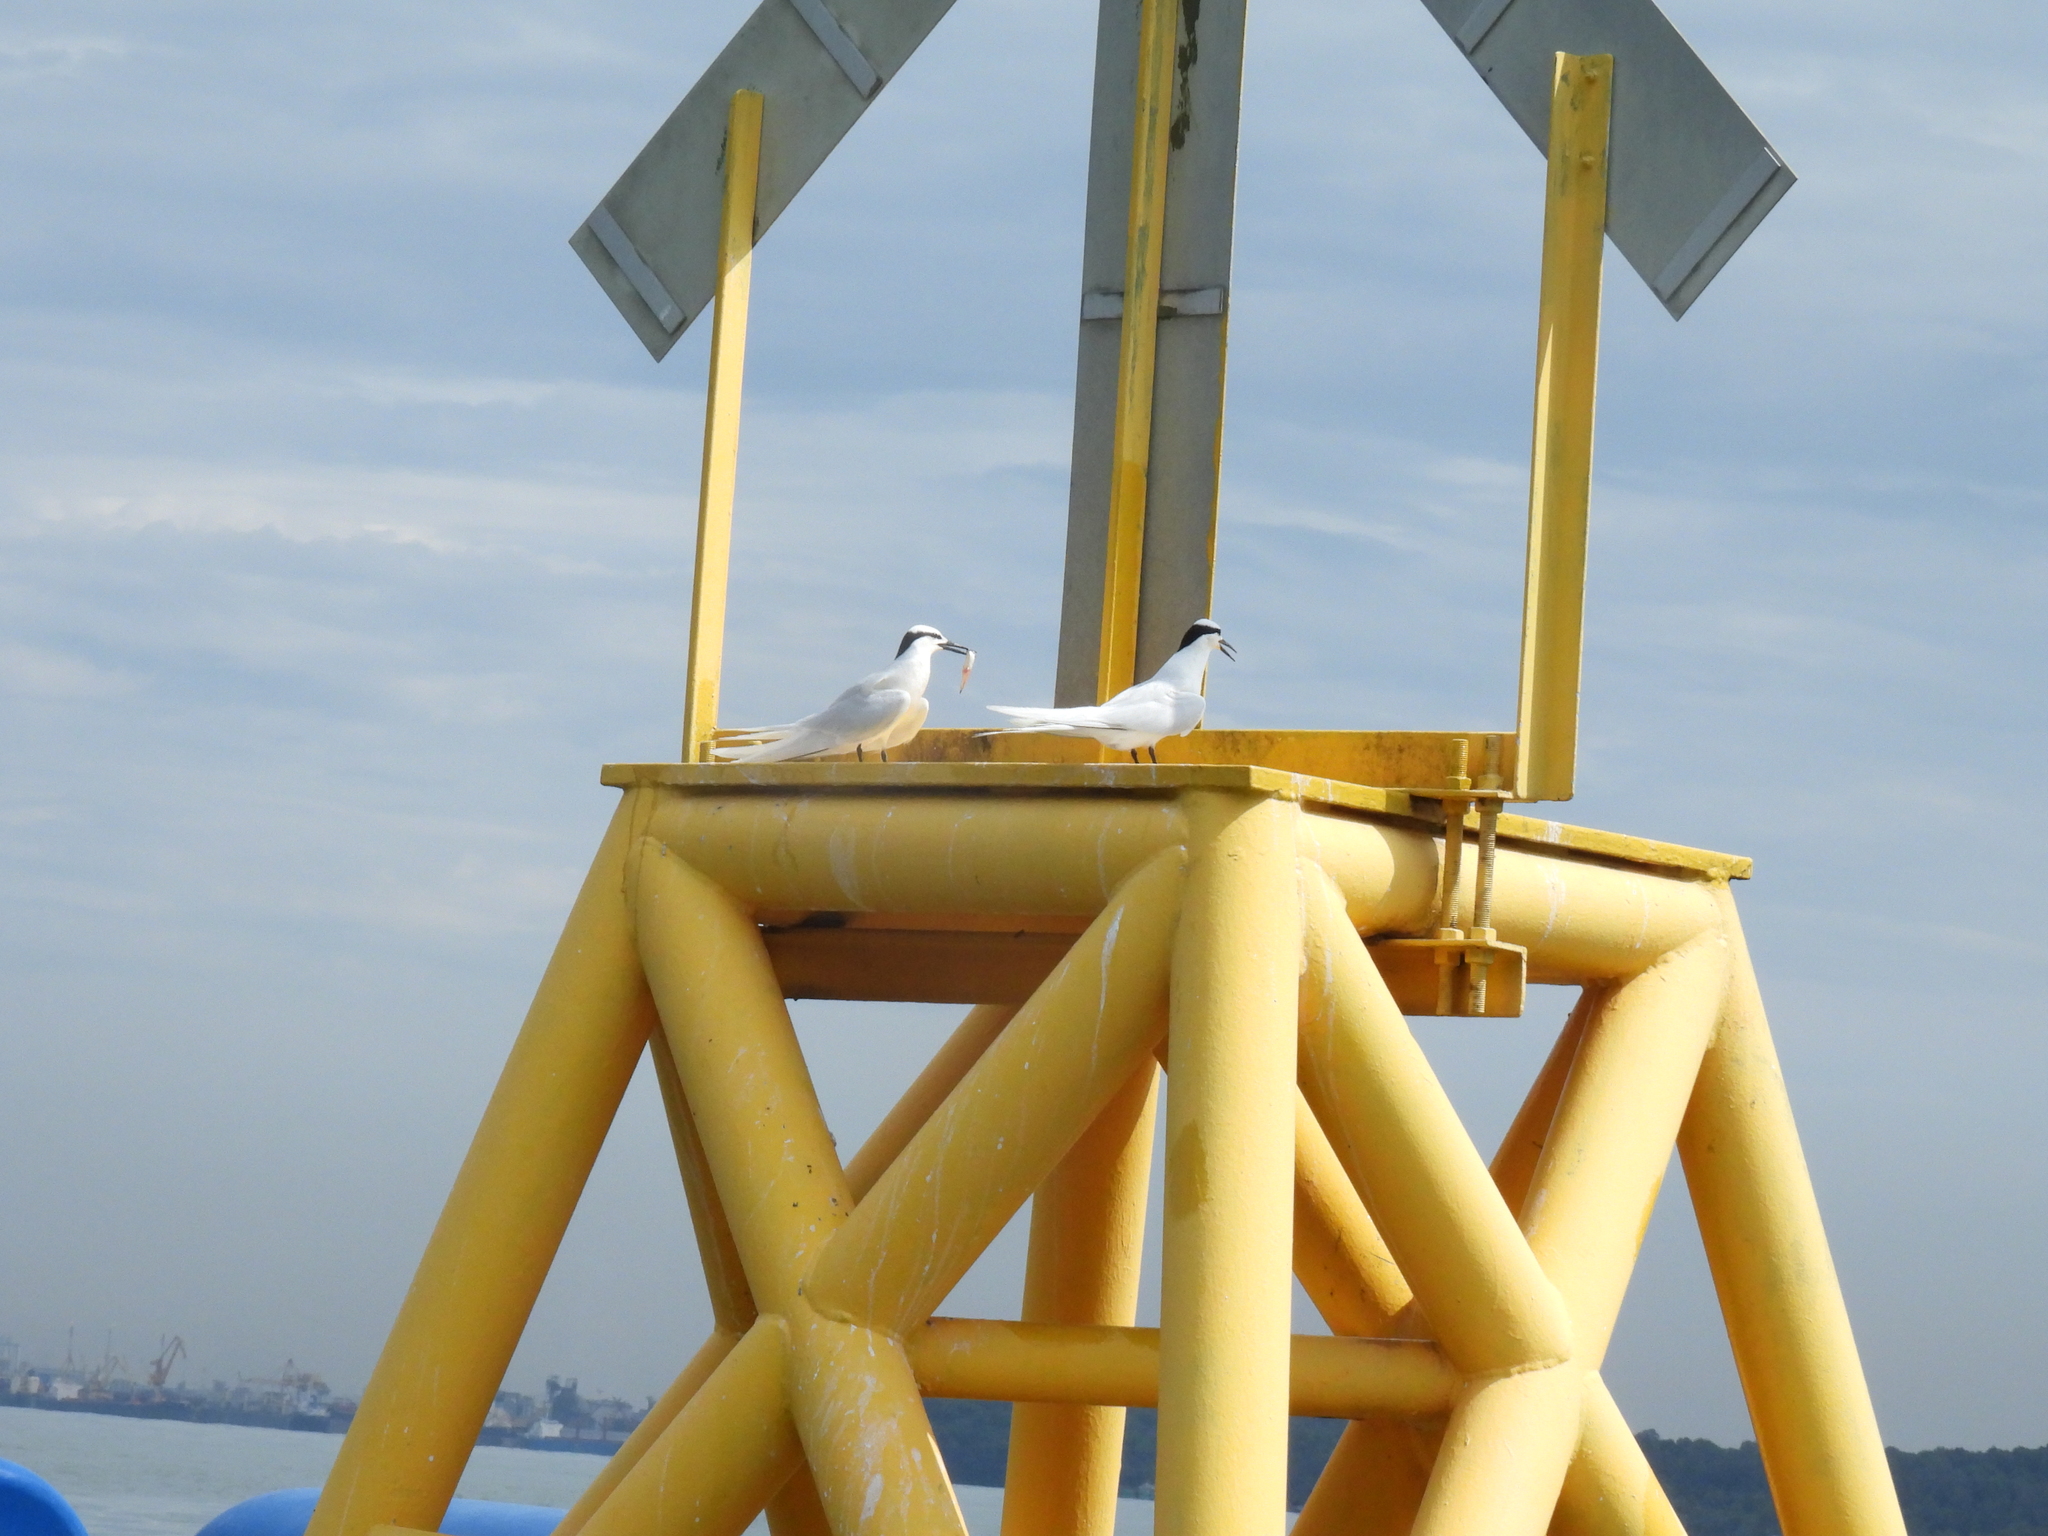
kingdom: Animalia
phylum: Chordata
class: Aves
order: Charadriiformes
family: Laridae
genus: Sterna
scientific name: Sterna sumatrana
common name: Black-naped tern
